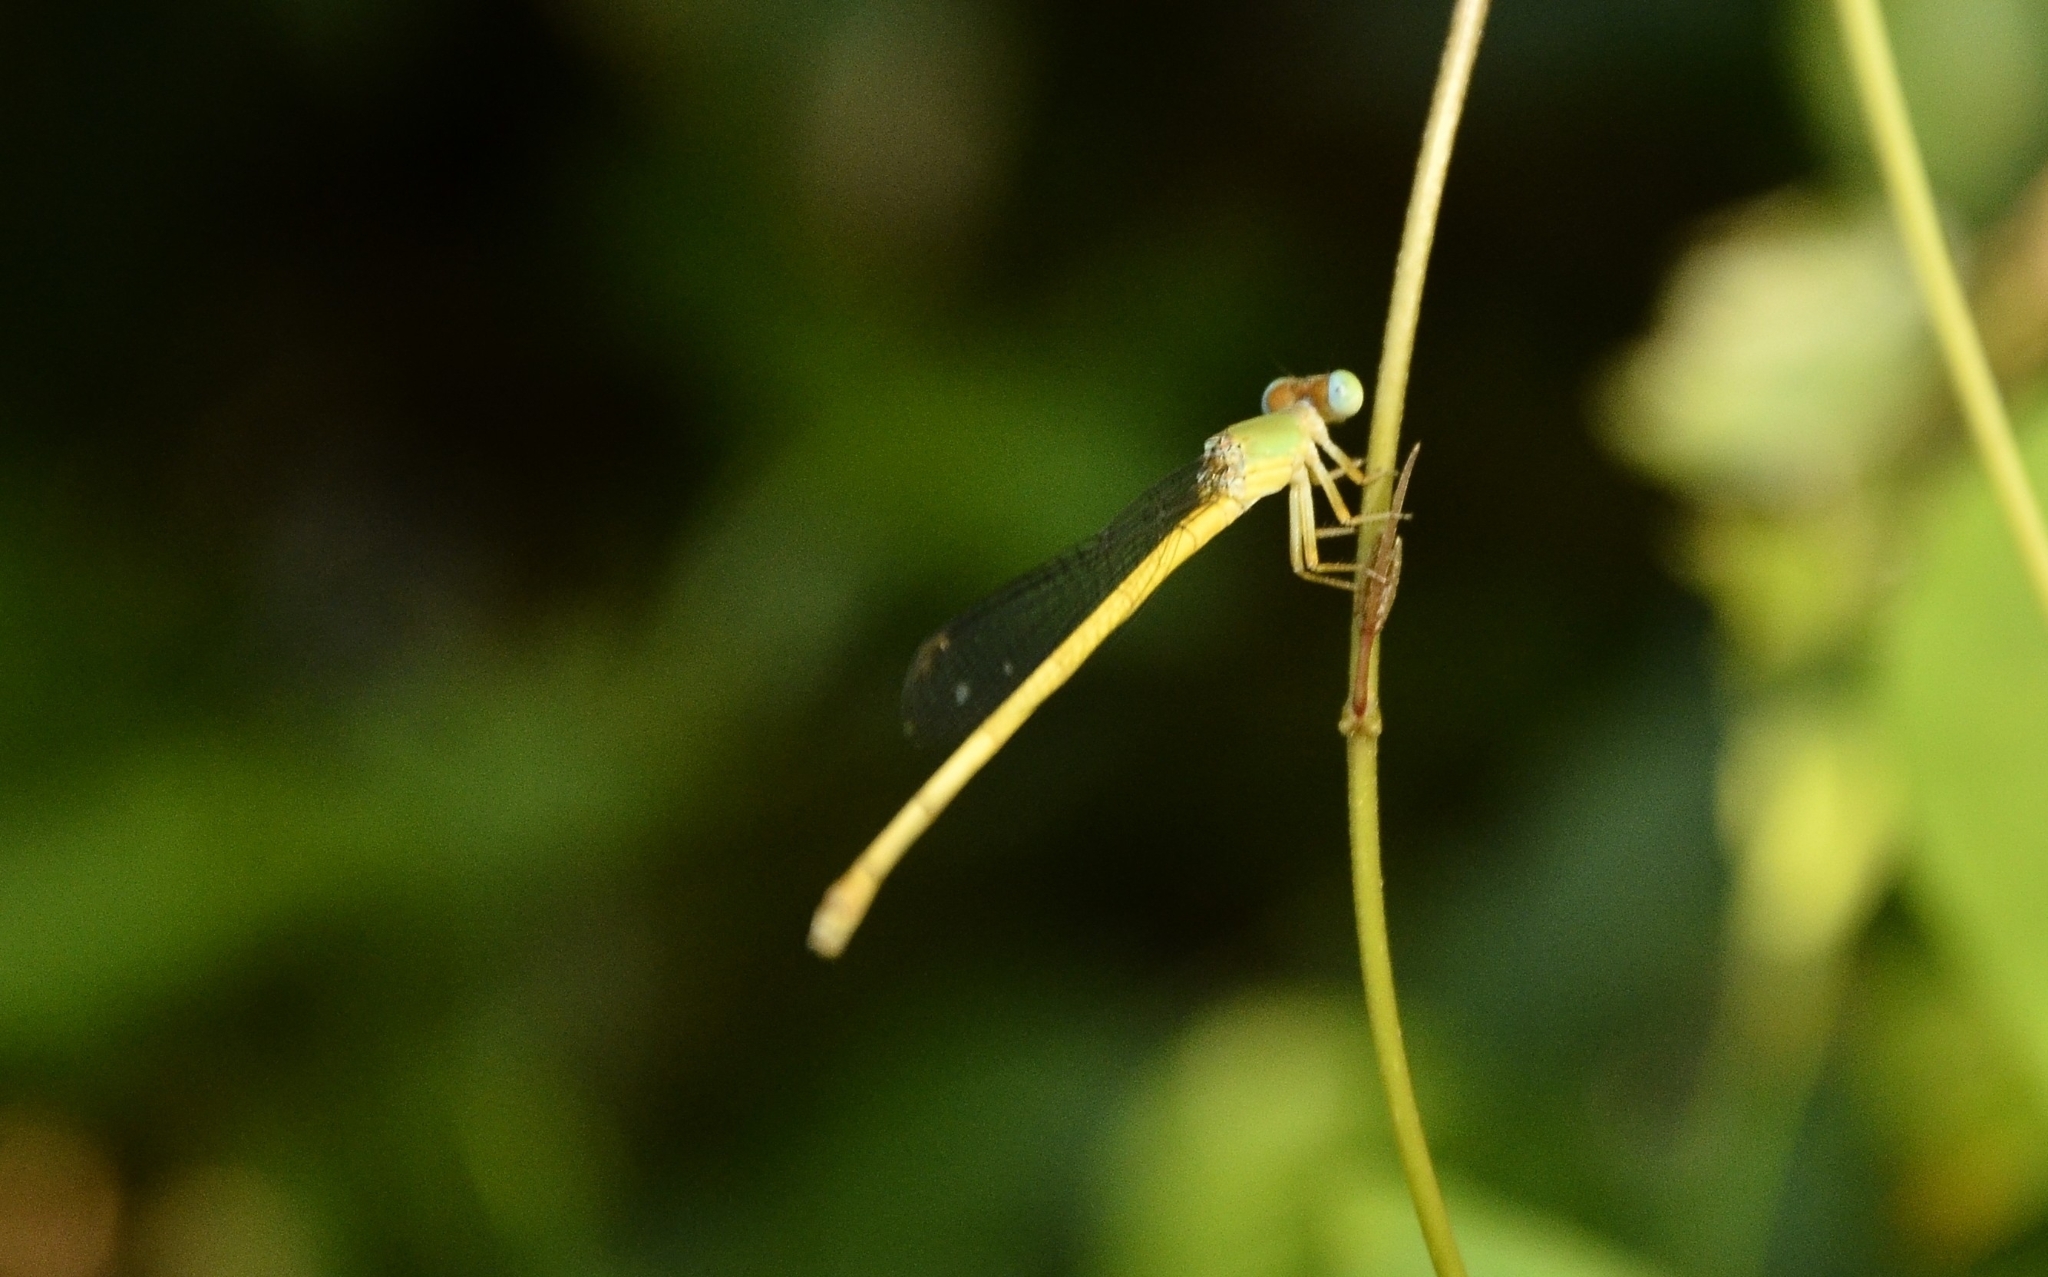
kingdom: Animalia
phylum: Arthropoda
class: Insecta
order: Odonata
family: Coenagrionidae
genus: Ceriagrion
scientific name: Ceriagrion coromandelianum
